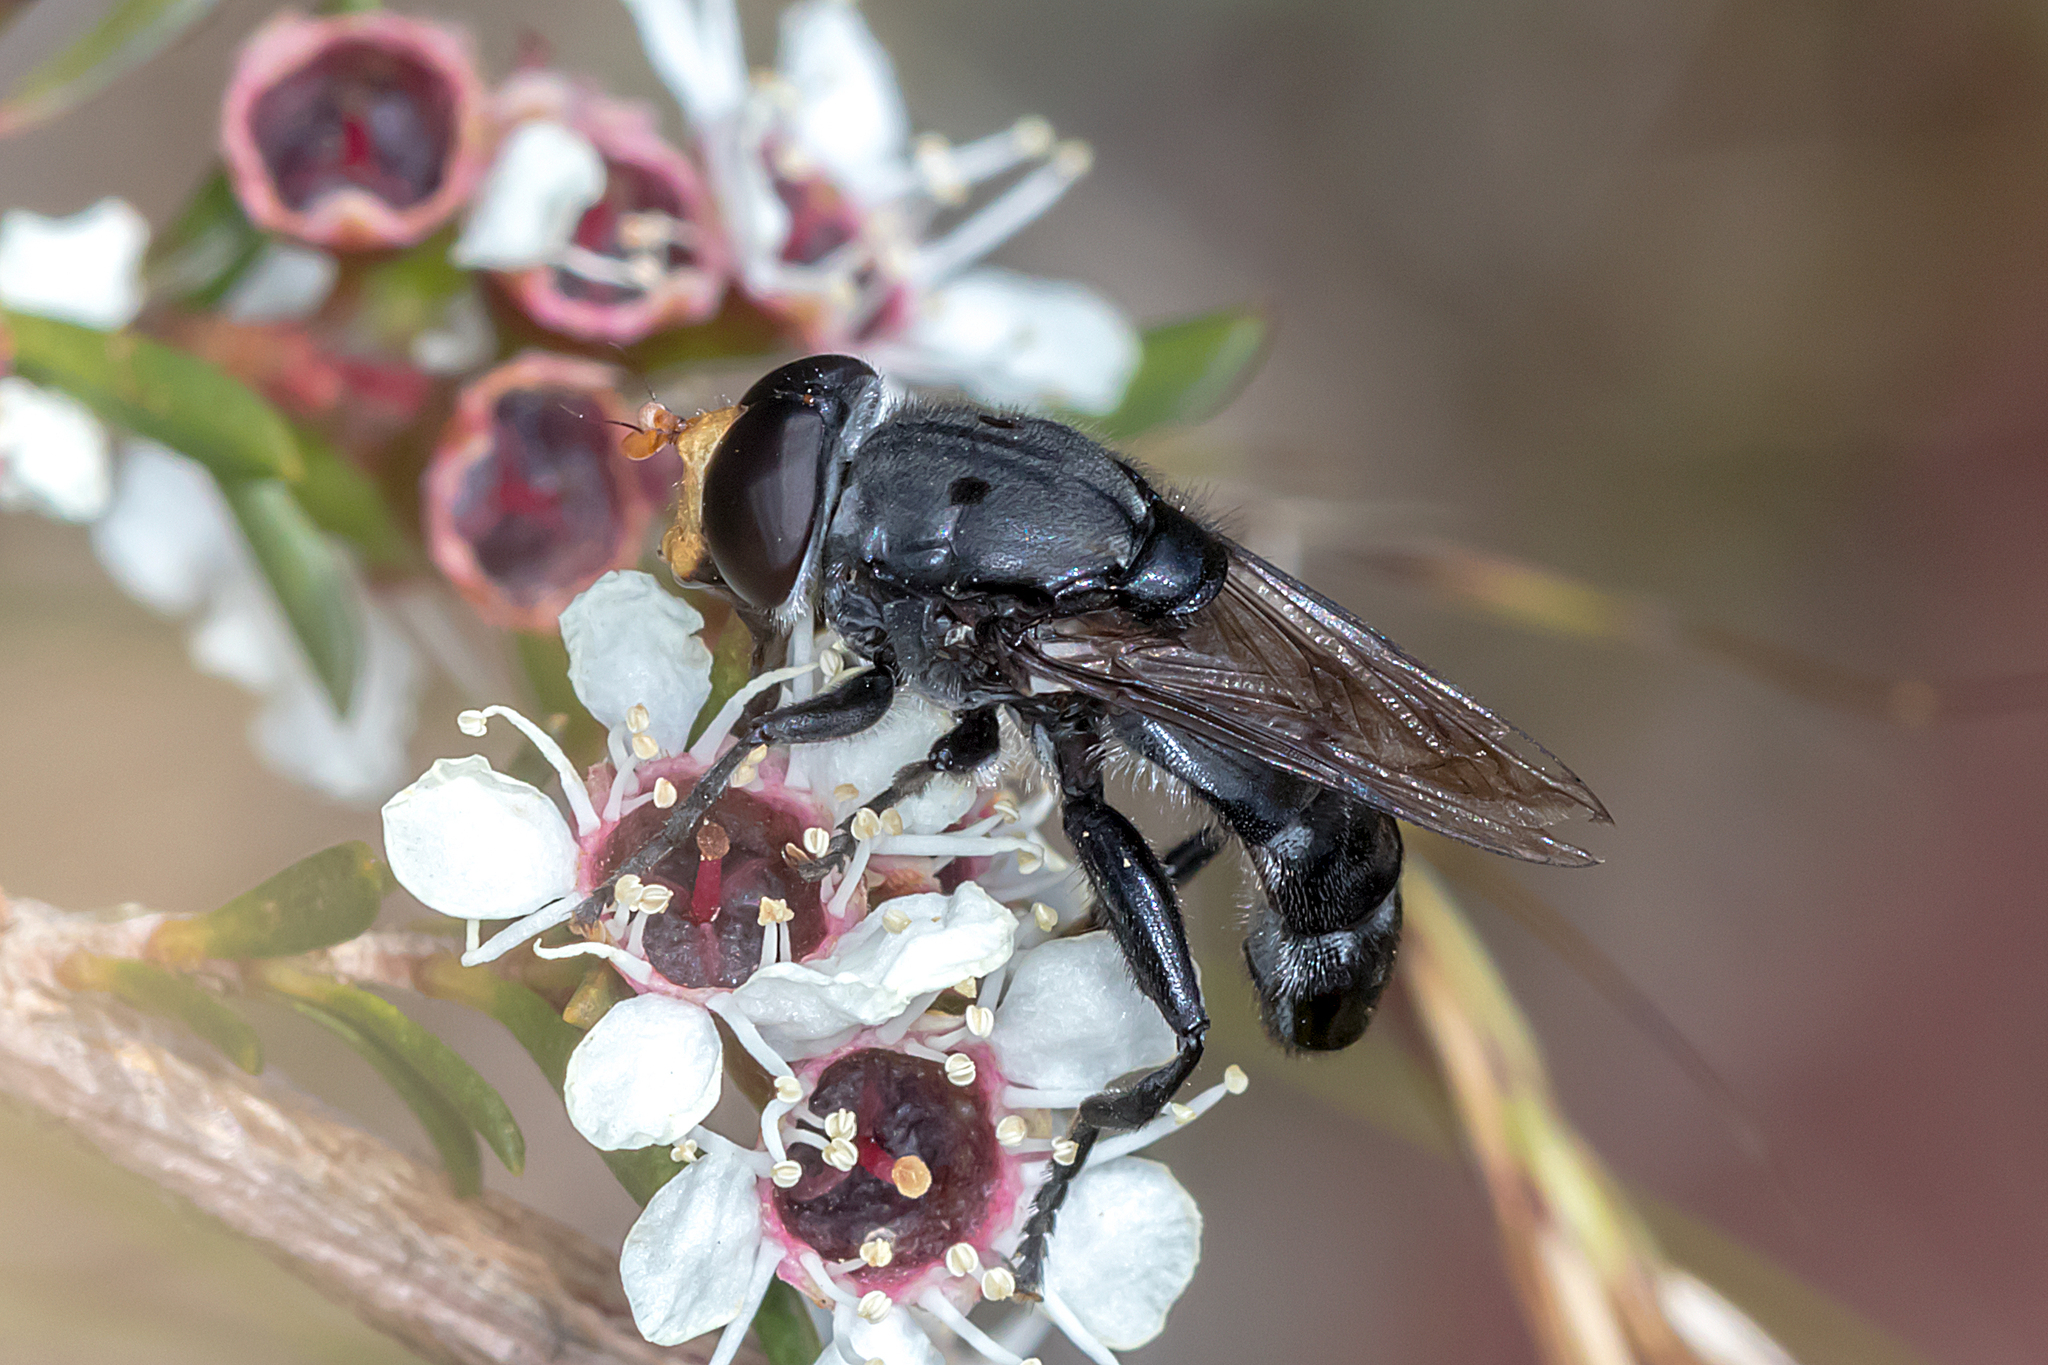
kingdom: Animalia
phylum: Arthropoda
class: Insecta
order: Diptera
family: Syrphidae
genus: Orthoprosopa
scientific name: Orthoprosopa grisea
